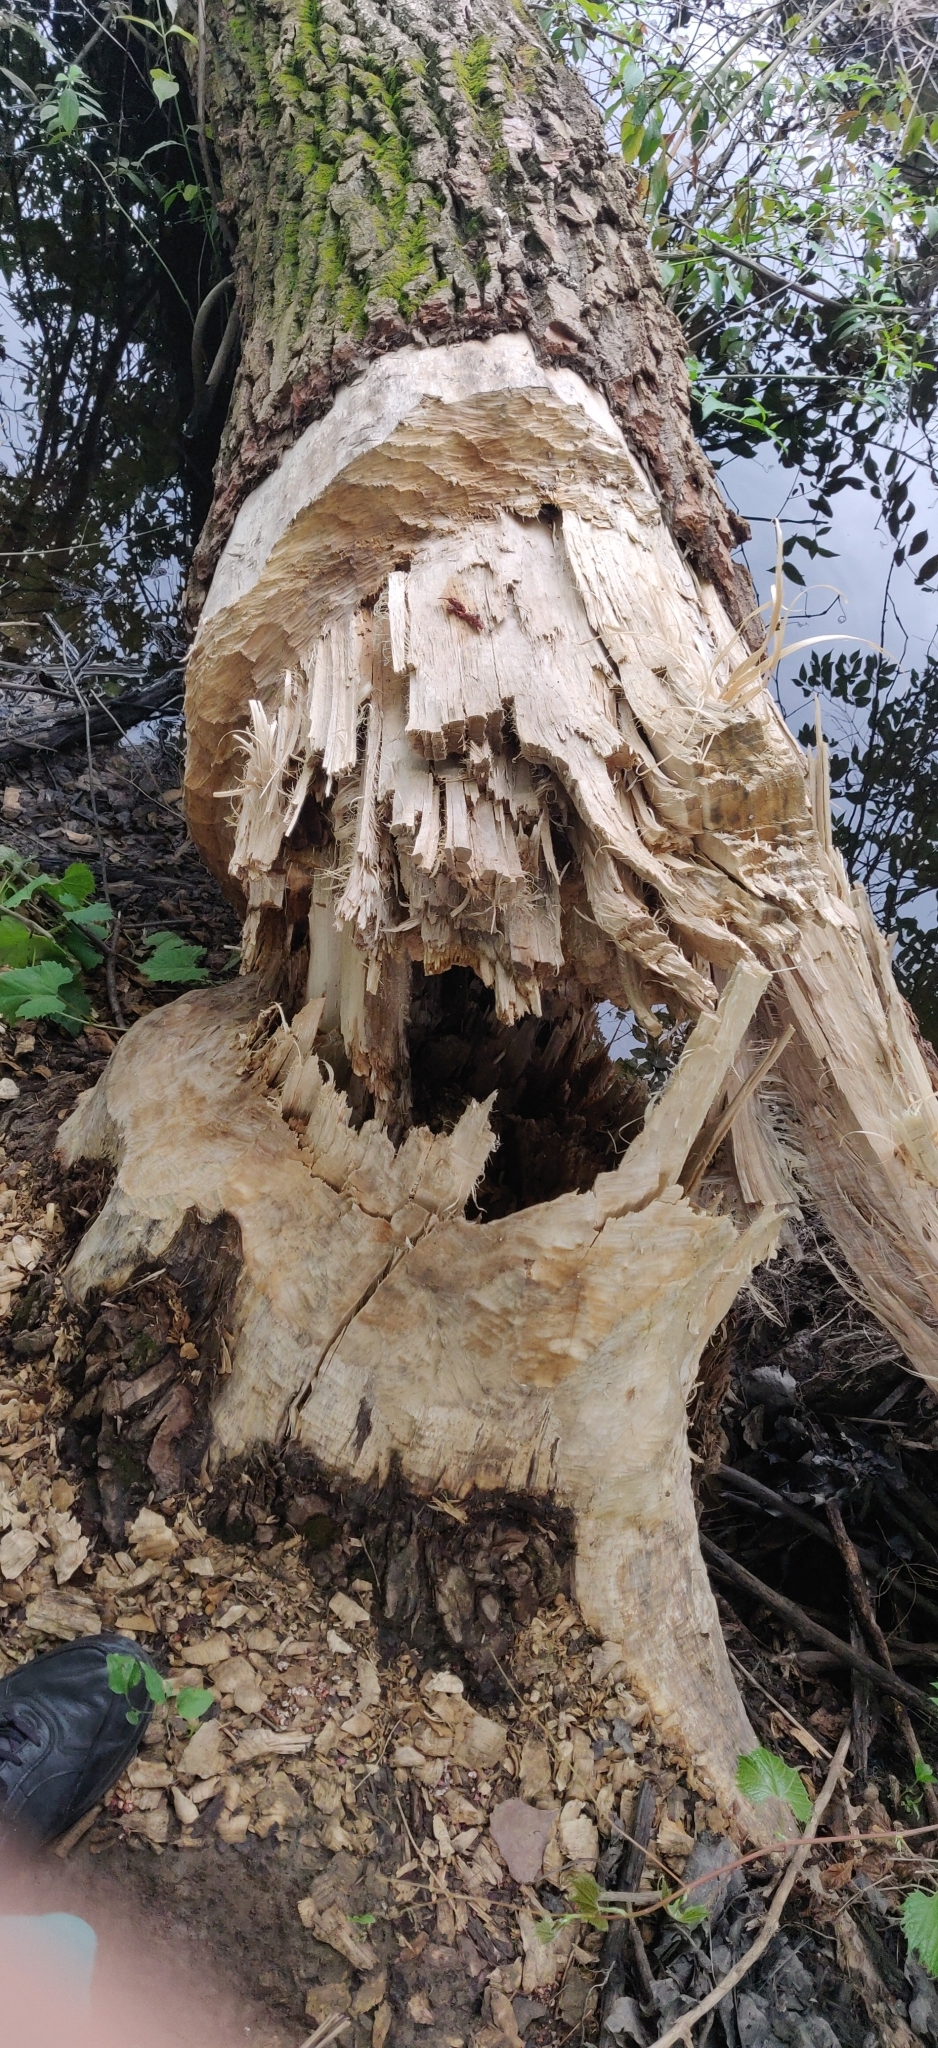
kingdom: Animalia
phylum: Chordata
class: Mammalia
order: Rodentia
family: Castoridae
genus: Castor
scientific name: Castor canadensis
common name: American beaver
